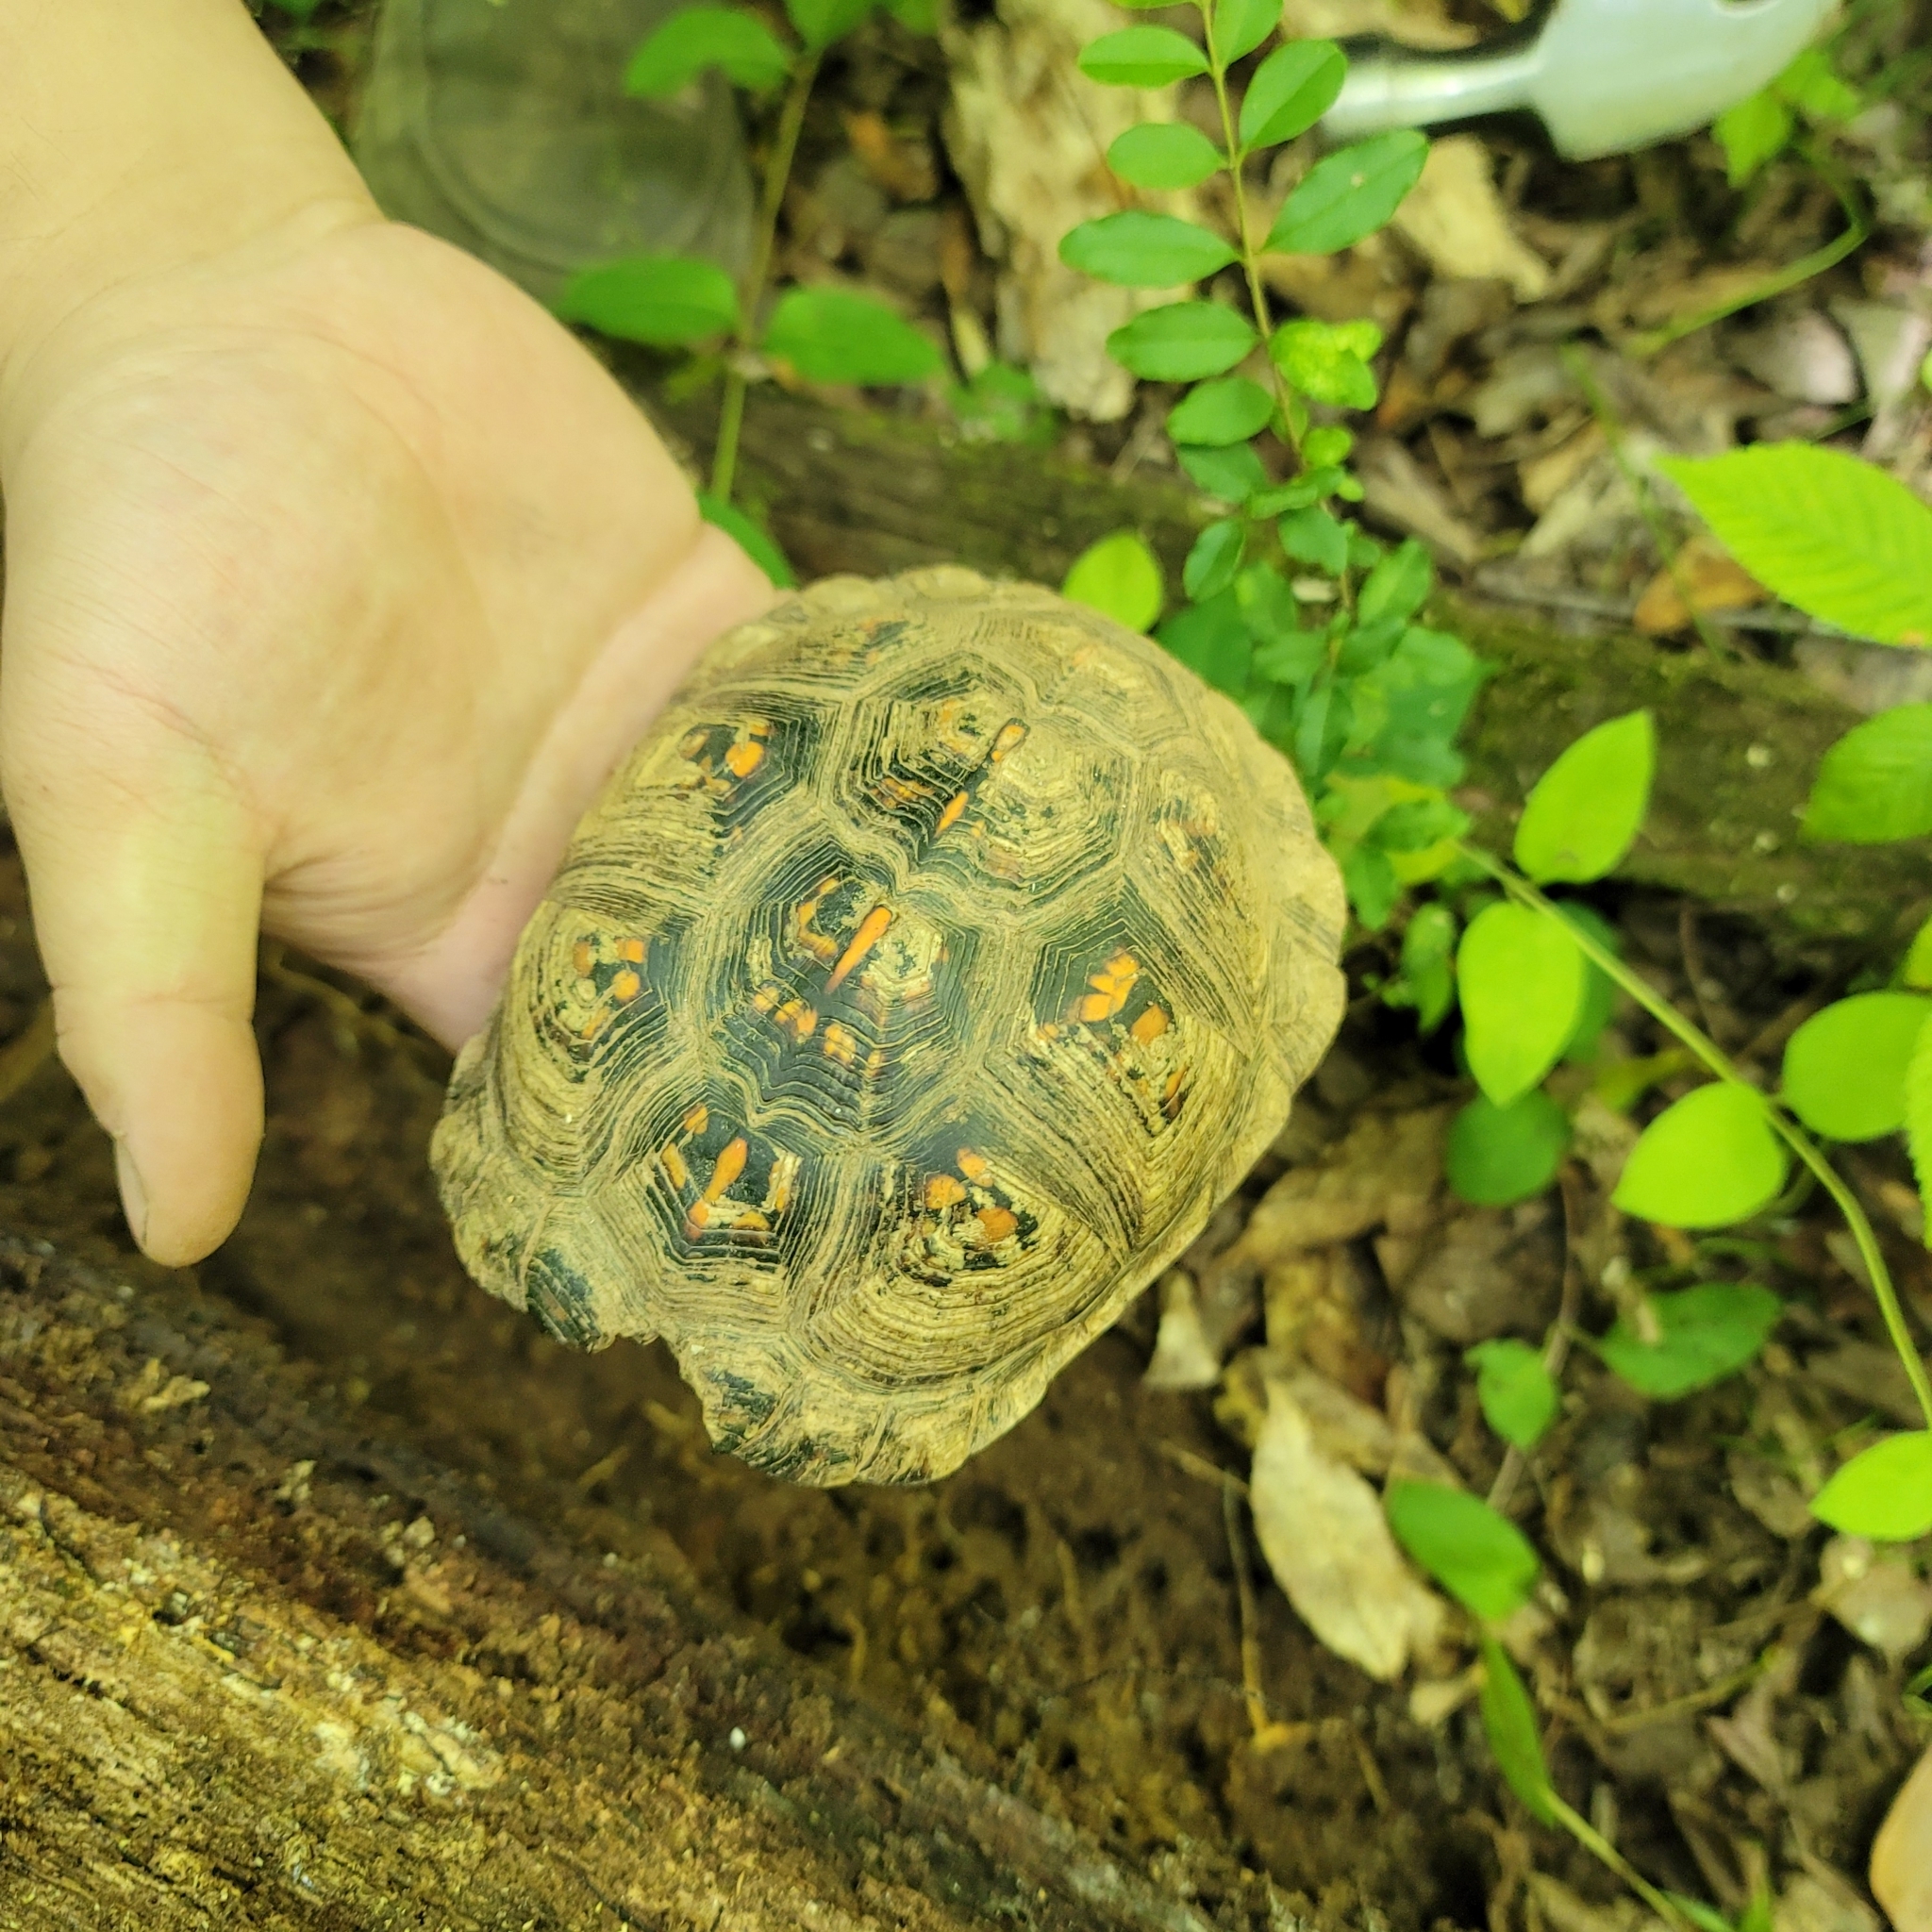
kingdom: Animalia
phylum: Chordata
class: Testudines
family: Emydidae
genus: Terrapene
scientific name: Terrapene carolina
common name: Common box turtle
